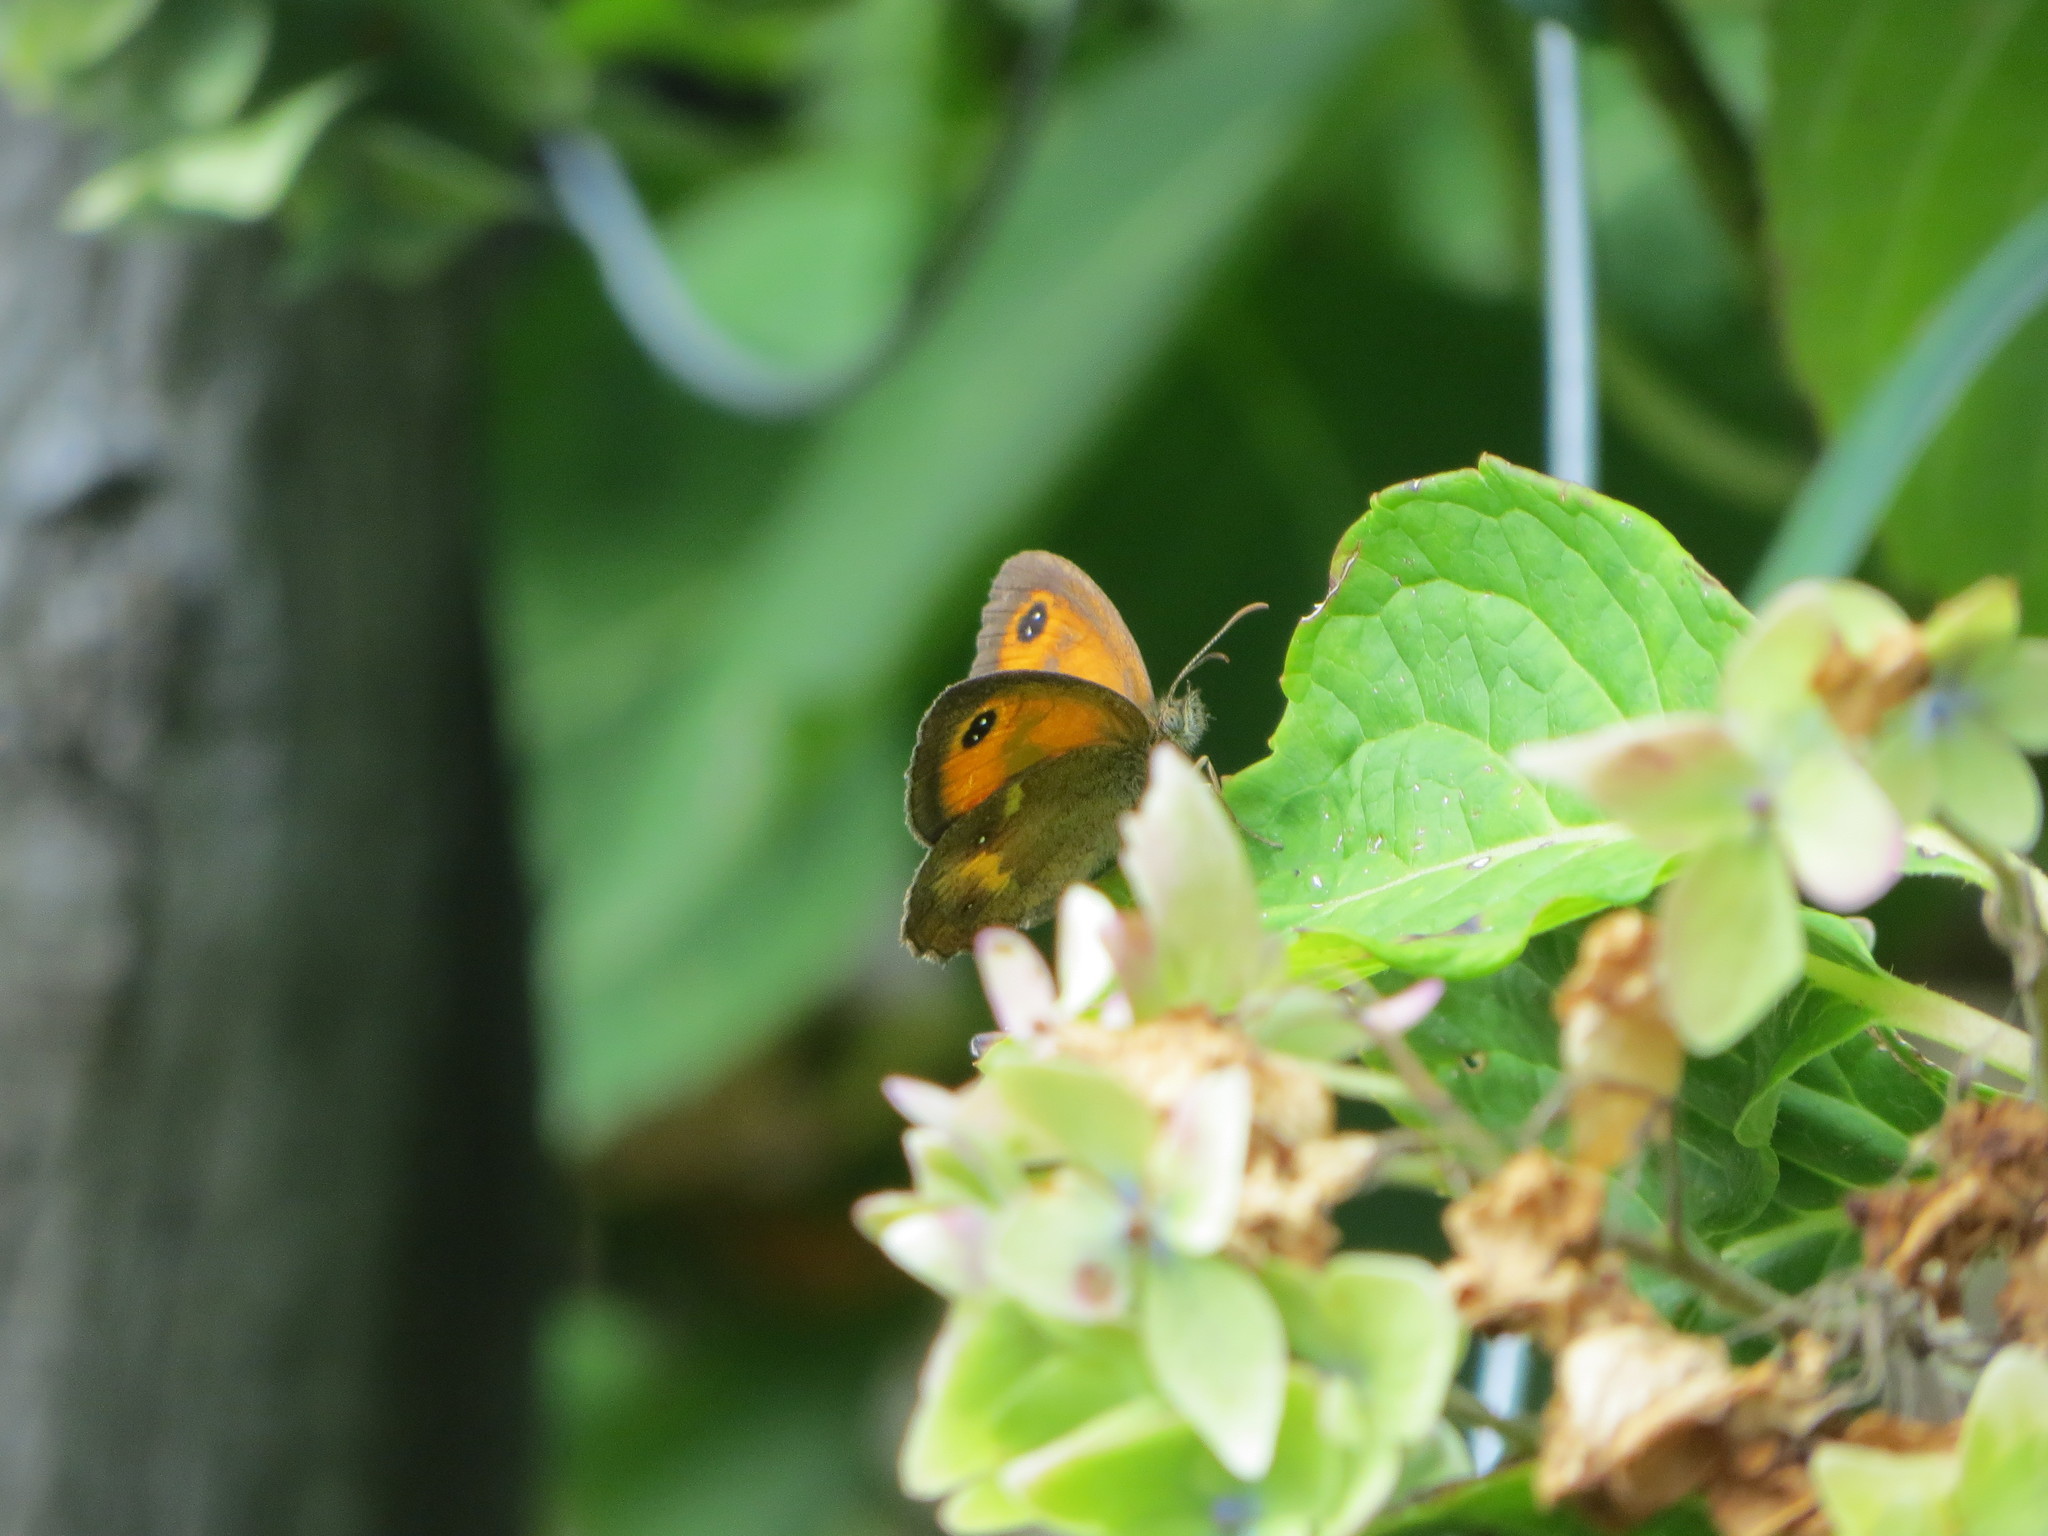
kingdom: Animalia
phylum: Arthropoda
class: Insecta
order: Lepidoptera
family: Nymphalidae
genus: Pyronia
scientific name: Pyronia tithonus
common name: Gatekeeper
